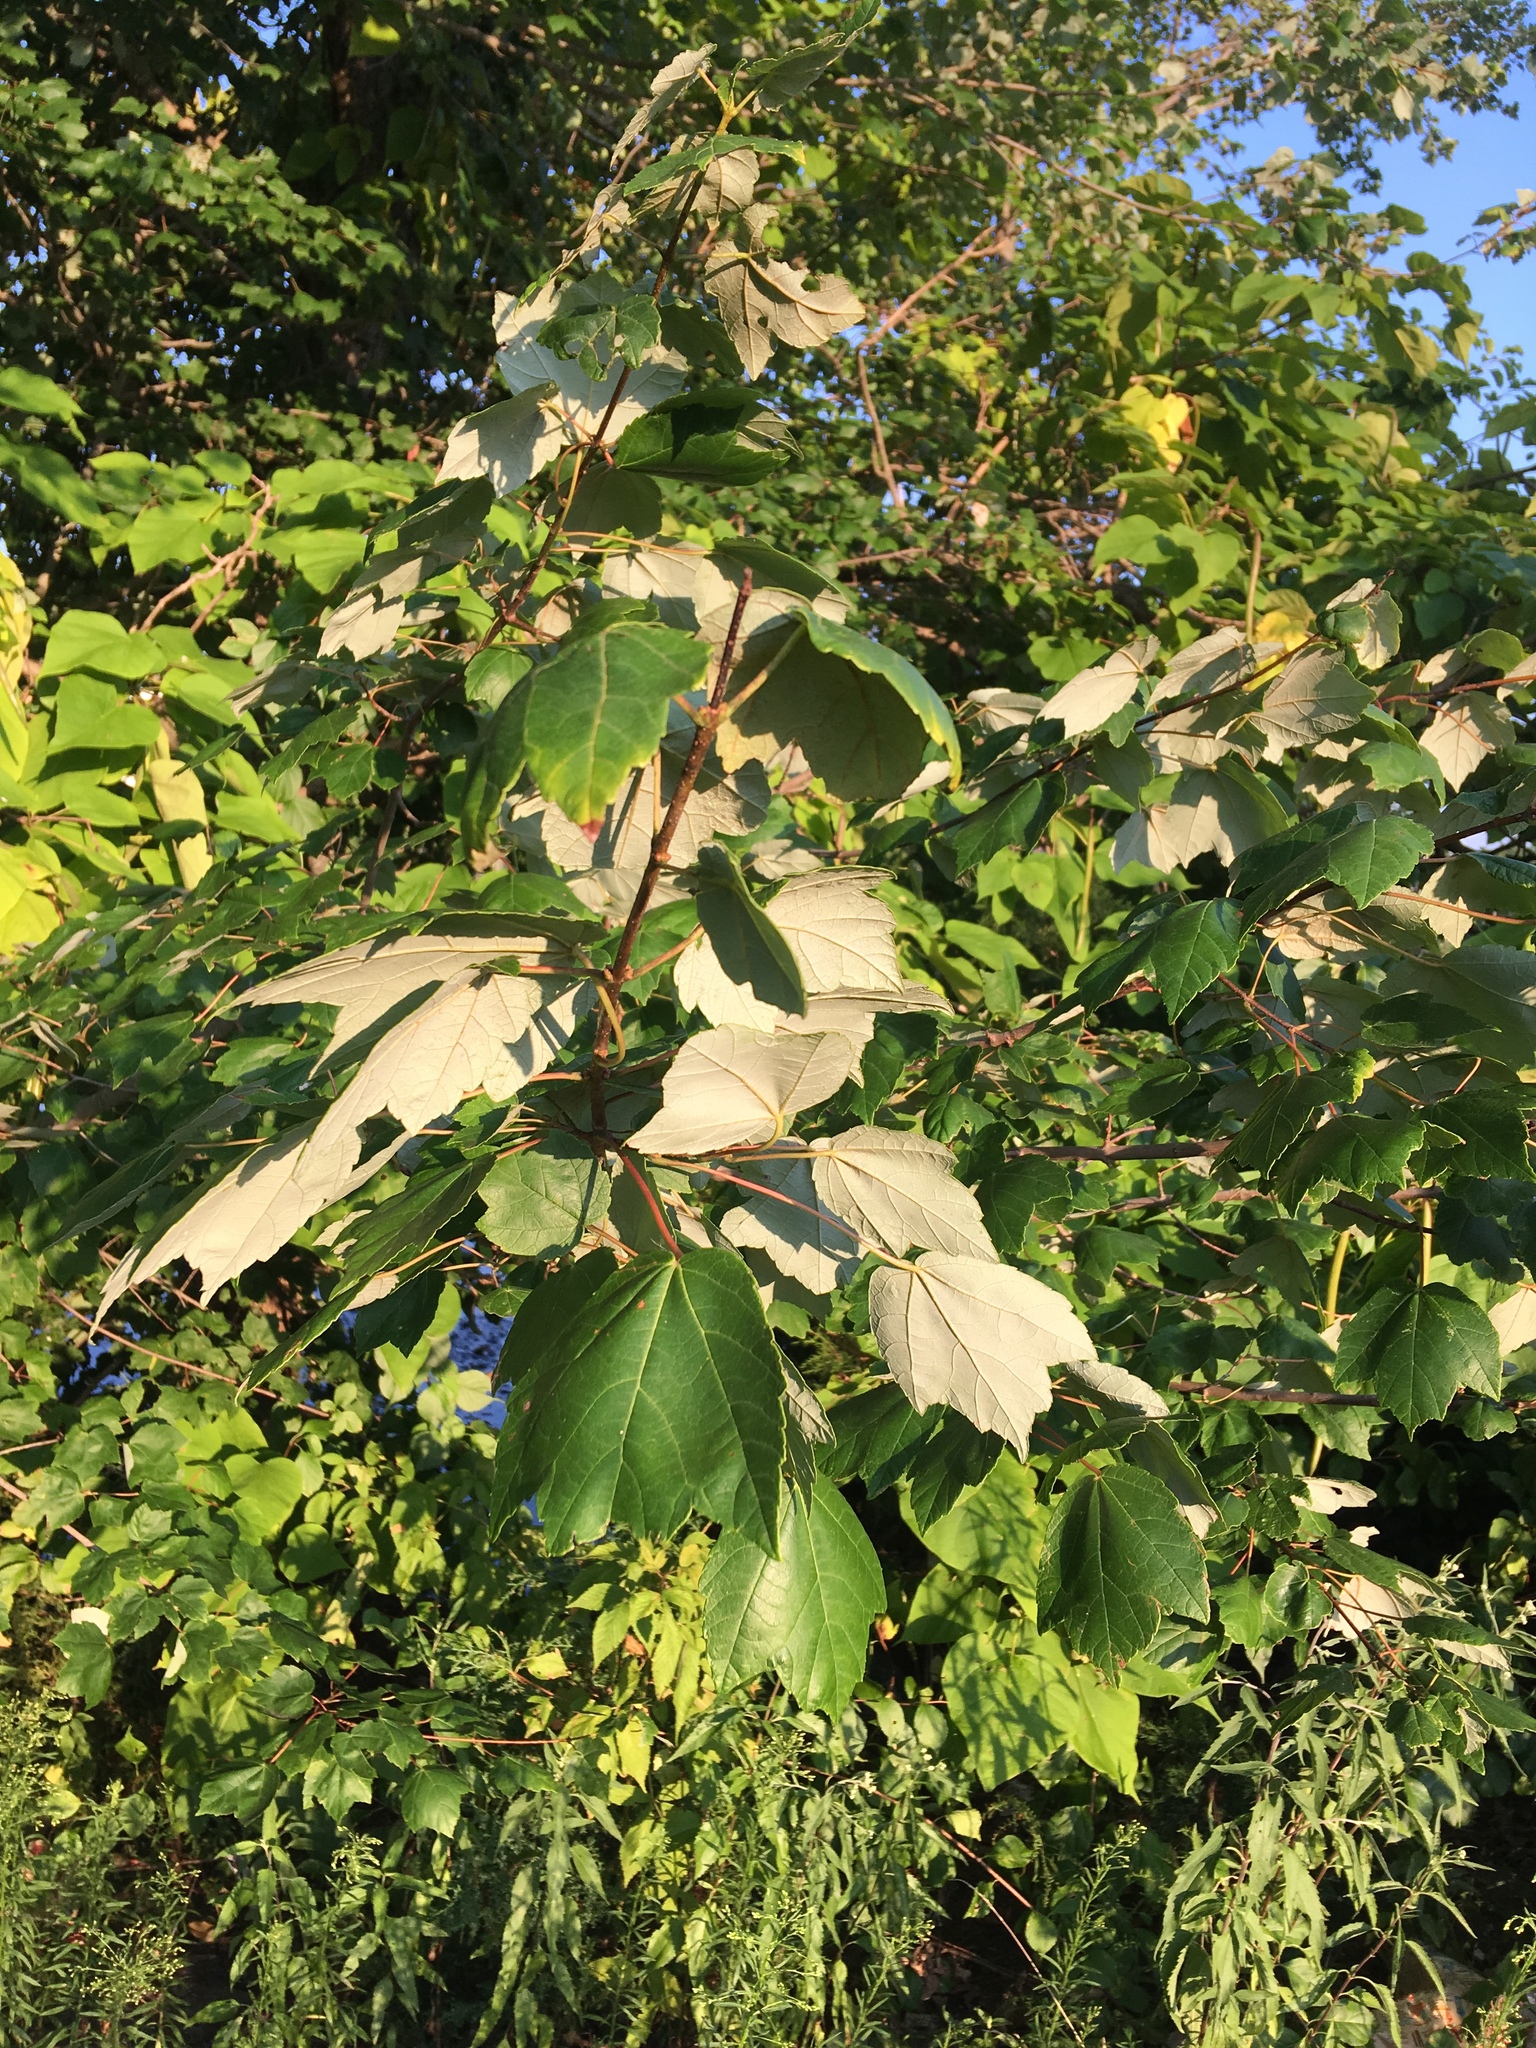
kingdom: Plantae
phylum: Tracheophyta
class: Magnoliopsida
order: Sapindales
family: Sapindaceae
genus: Acer
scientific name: Acer rubrum
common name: Red maple
